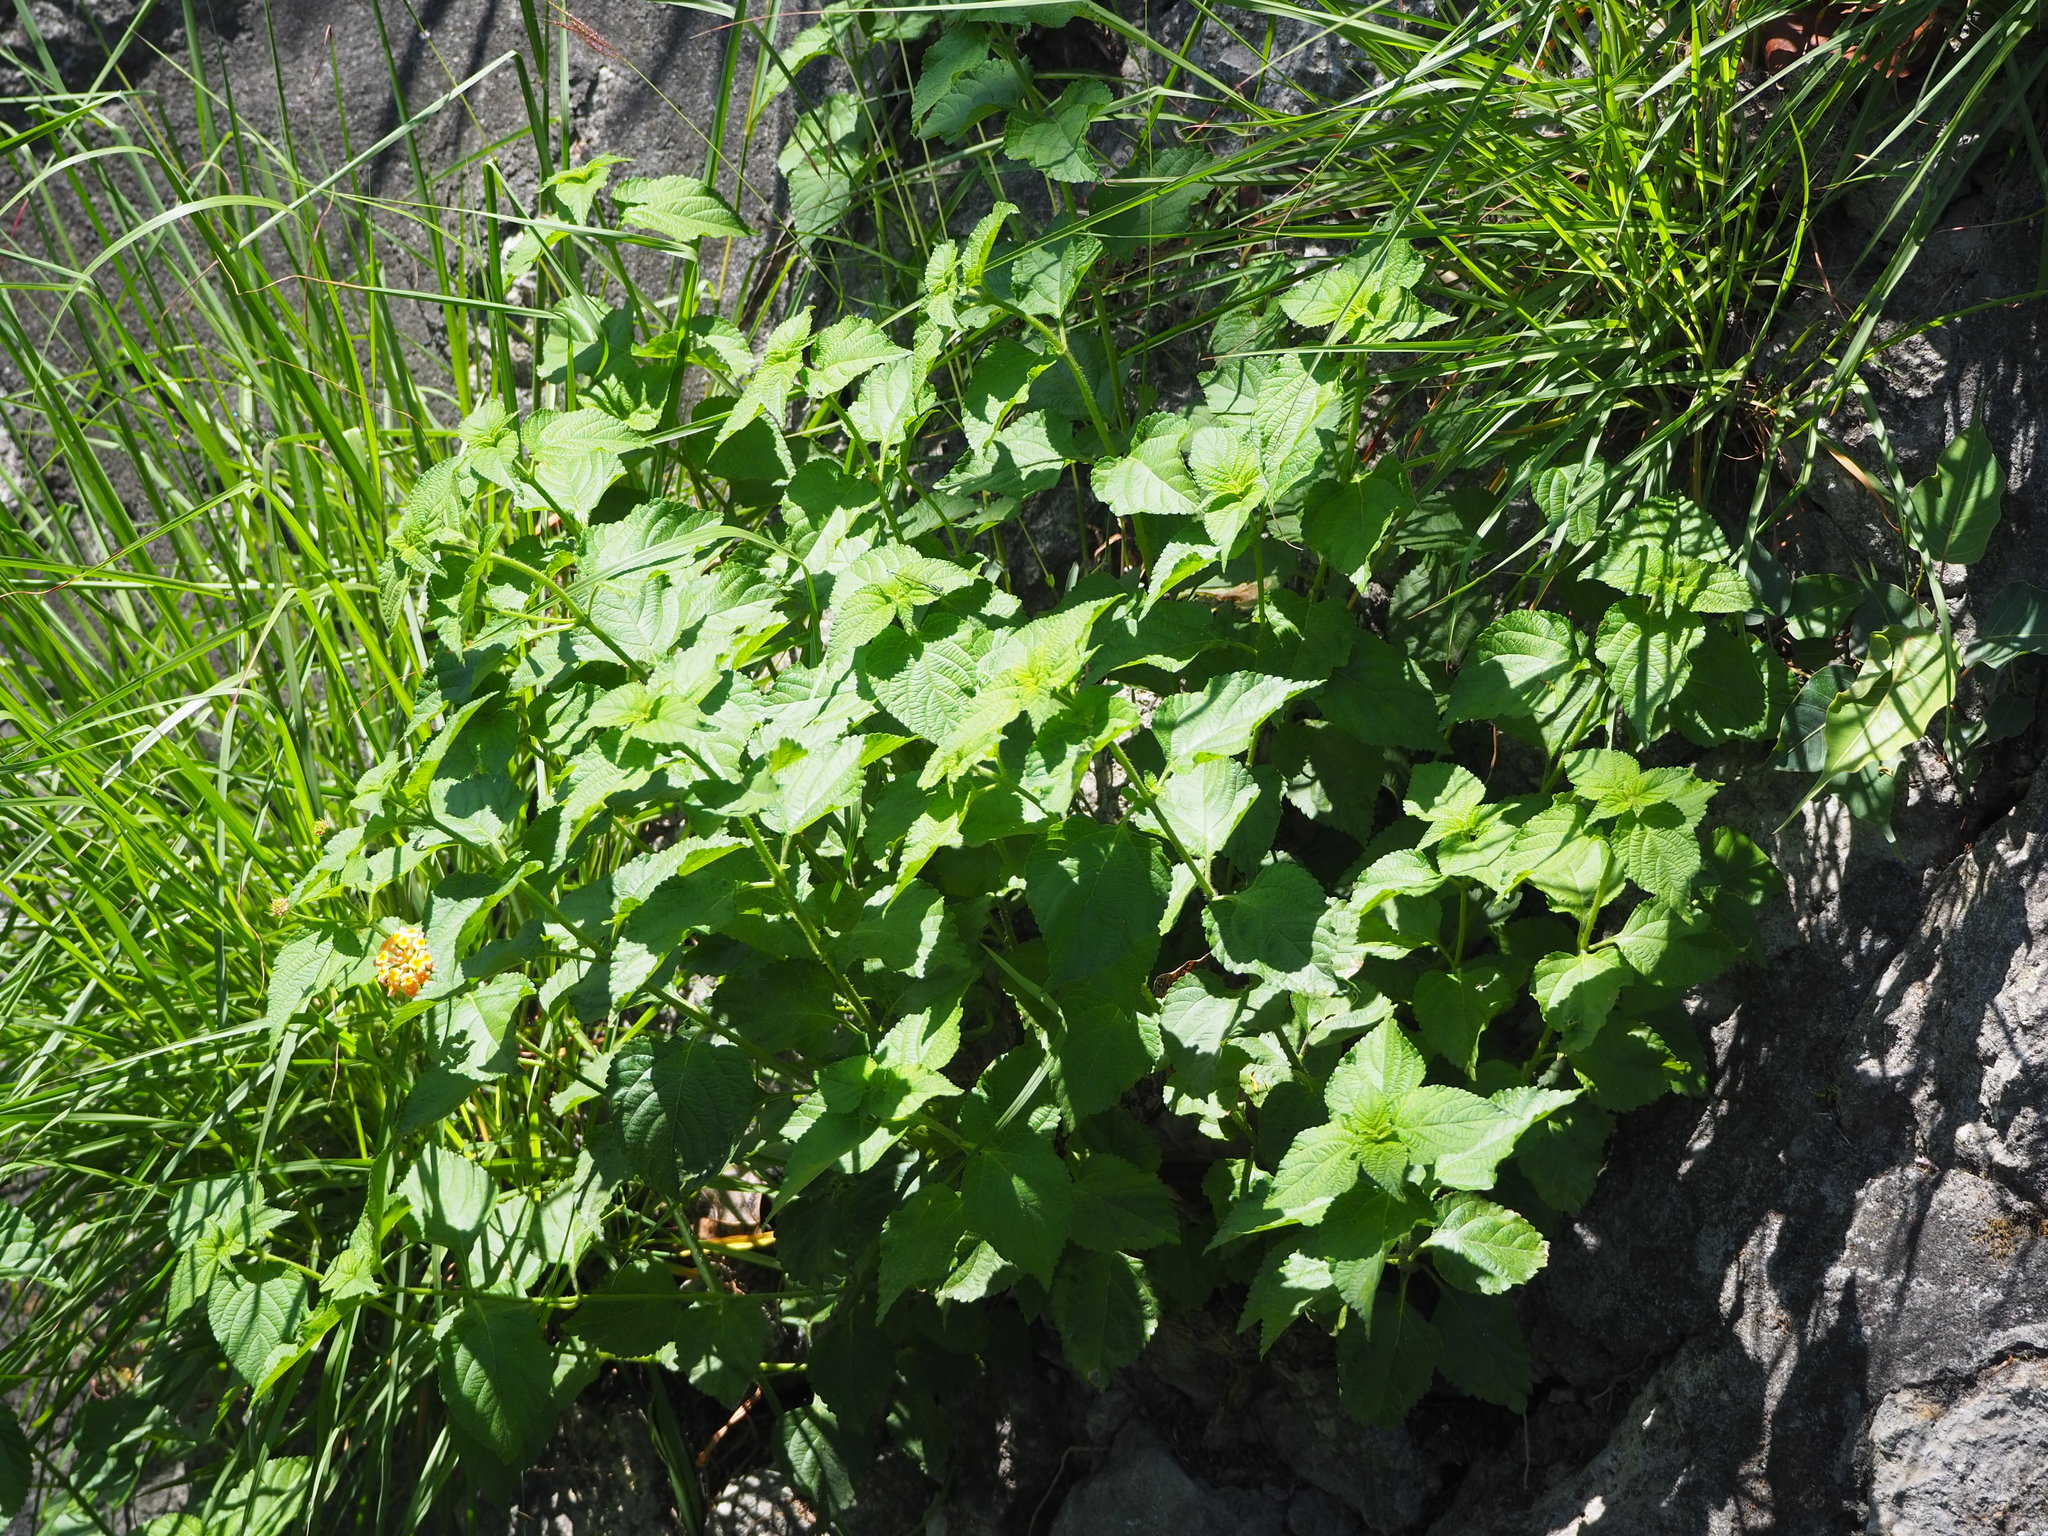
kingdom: Plantae
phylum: Tracheophyta
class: Magnoliopsida
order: Lamiales
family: Verbenaceae
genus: Lantana
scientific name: Lantana camara
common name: Lantana
